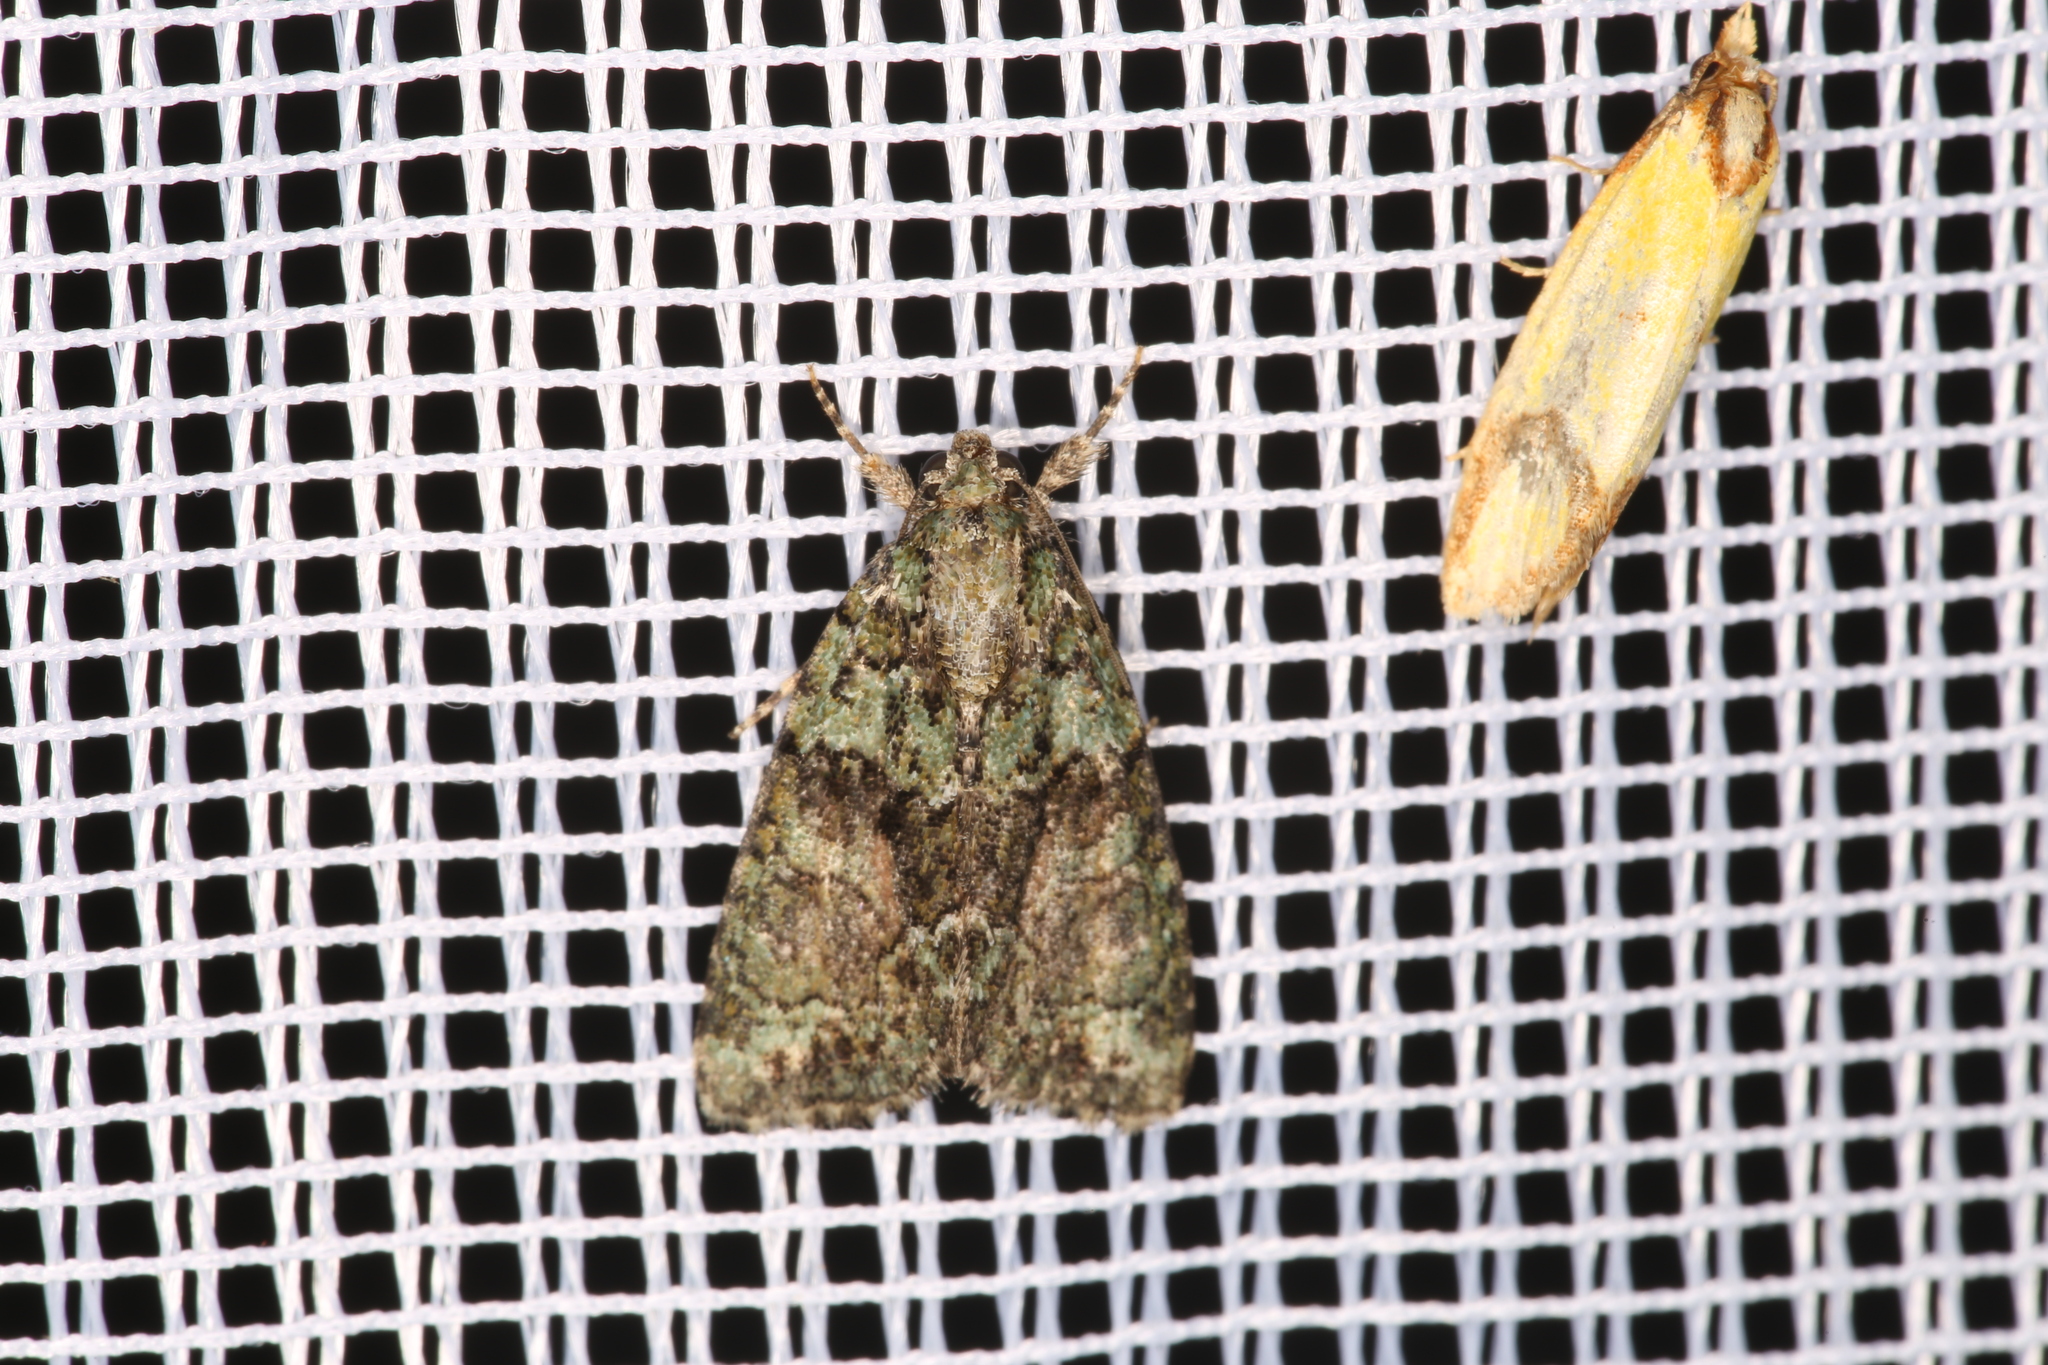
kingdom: Animalia
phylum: Arthropoda
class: Insecta
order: Lepidoptera
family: Noctuidae
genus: Cryphia
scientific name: Cryphia algae
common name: Tree-lichen beauty
